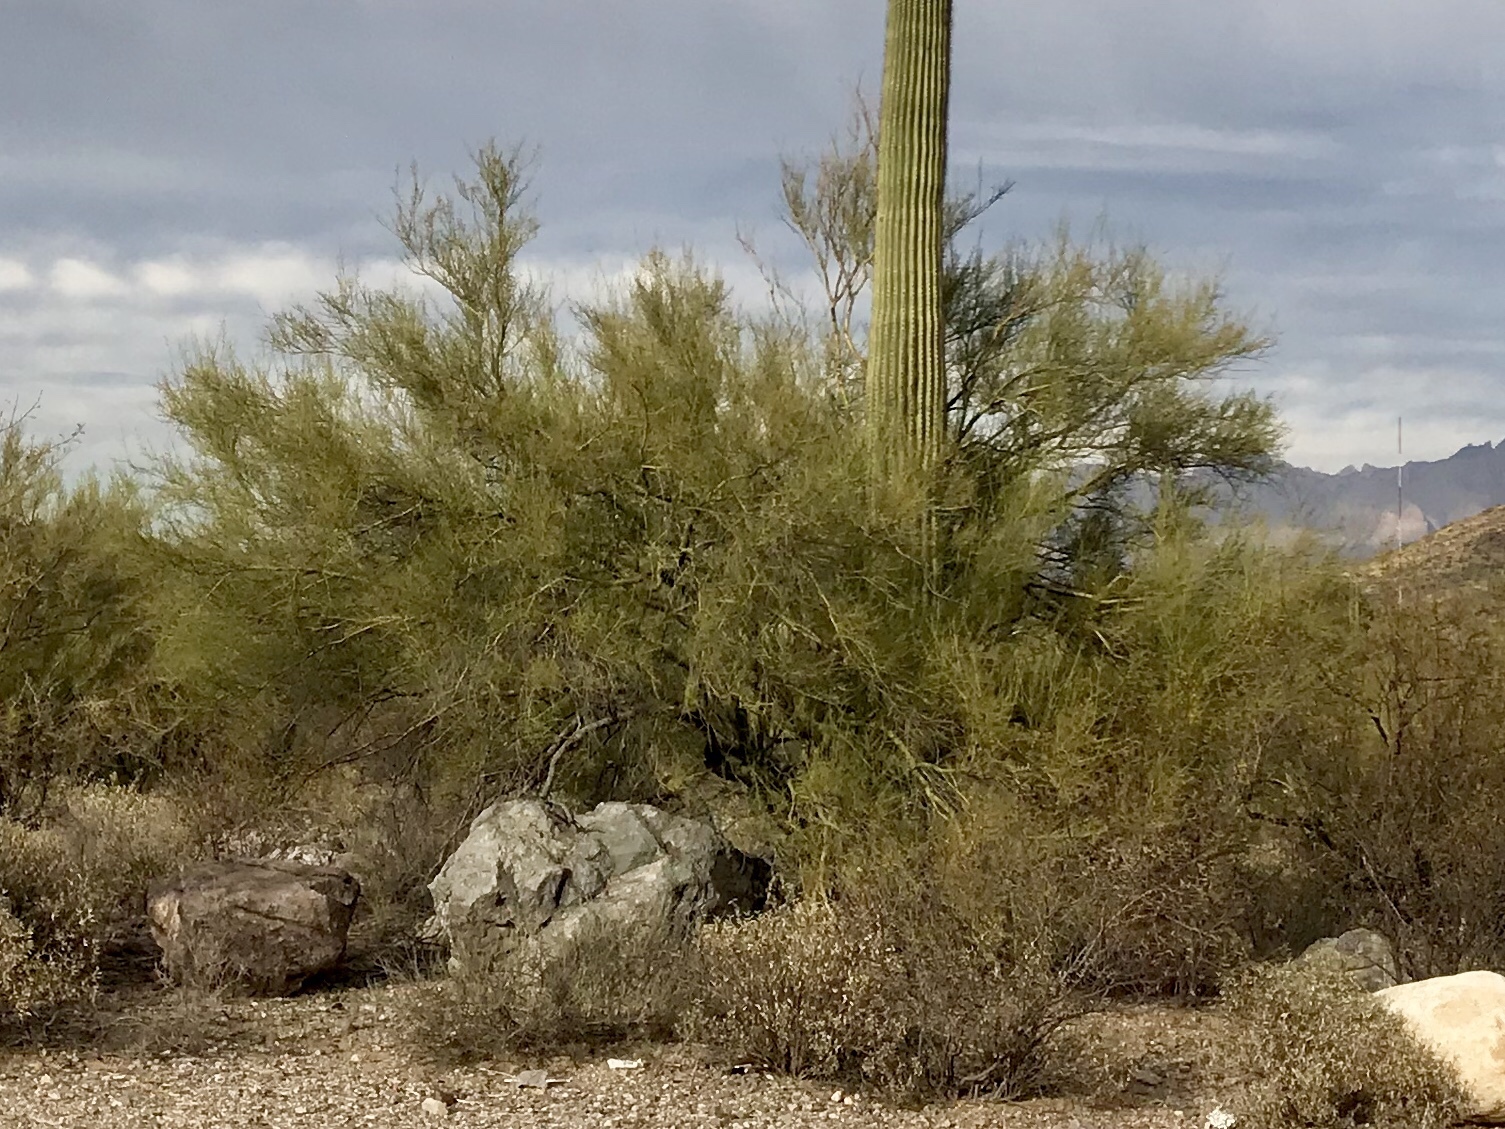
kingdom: Plantae
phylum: Tracheophyta
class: Magnoliopsida
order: Fabales
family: Fabaceae
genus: Parkinsonia
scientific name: Parkinsonia microphylla
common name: Yellow paloverde
